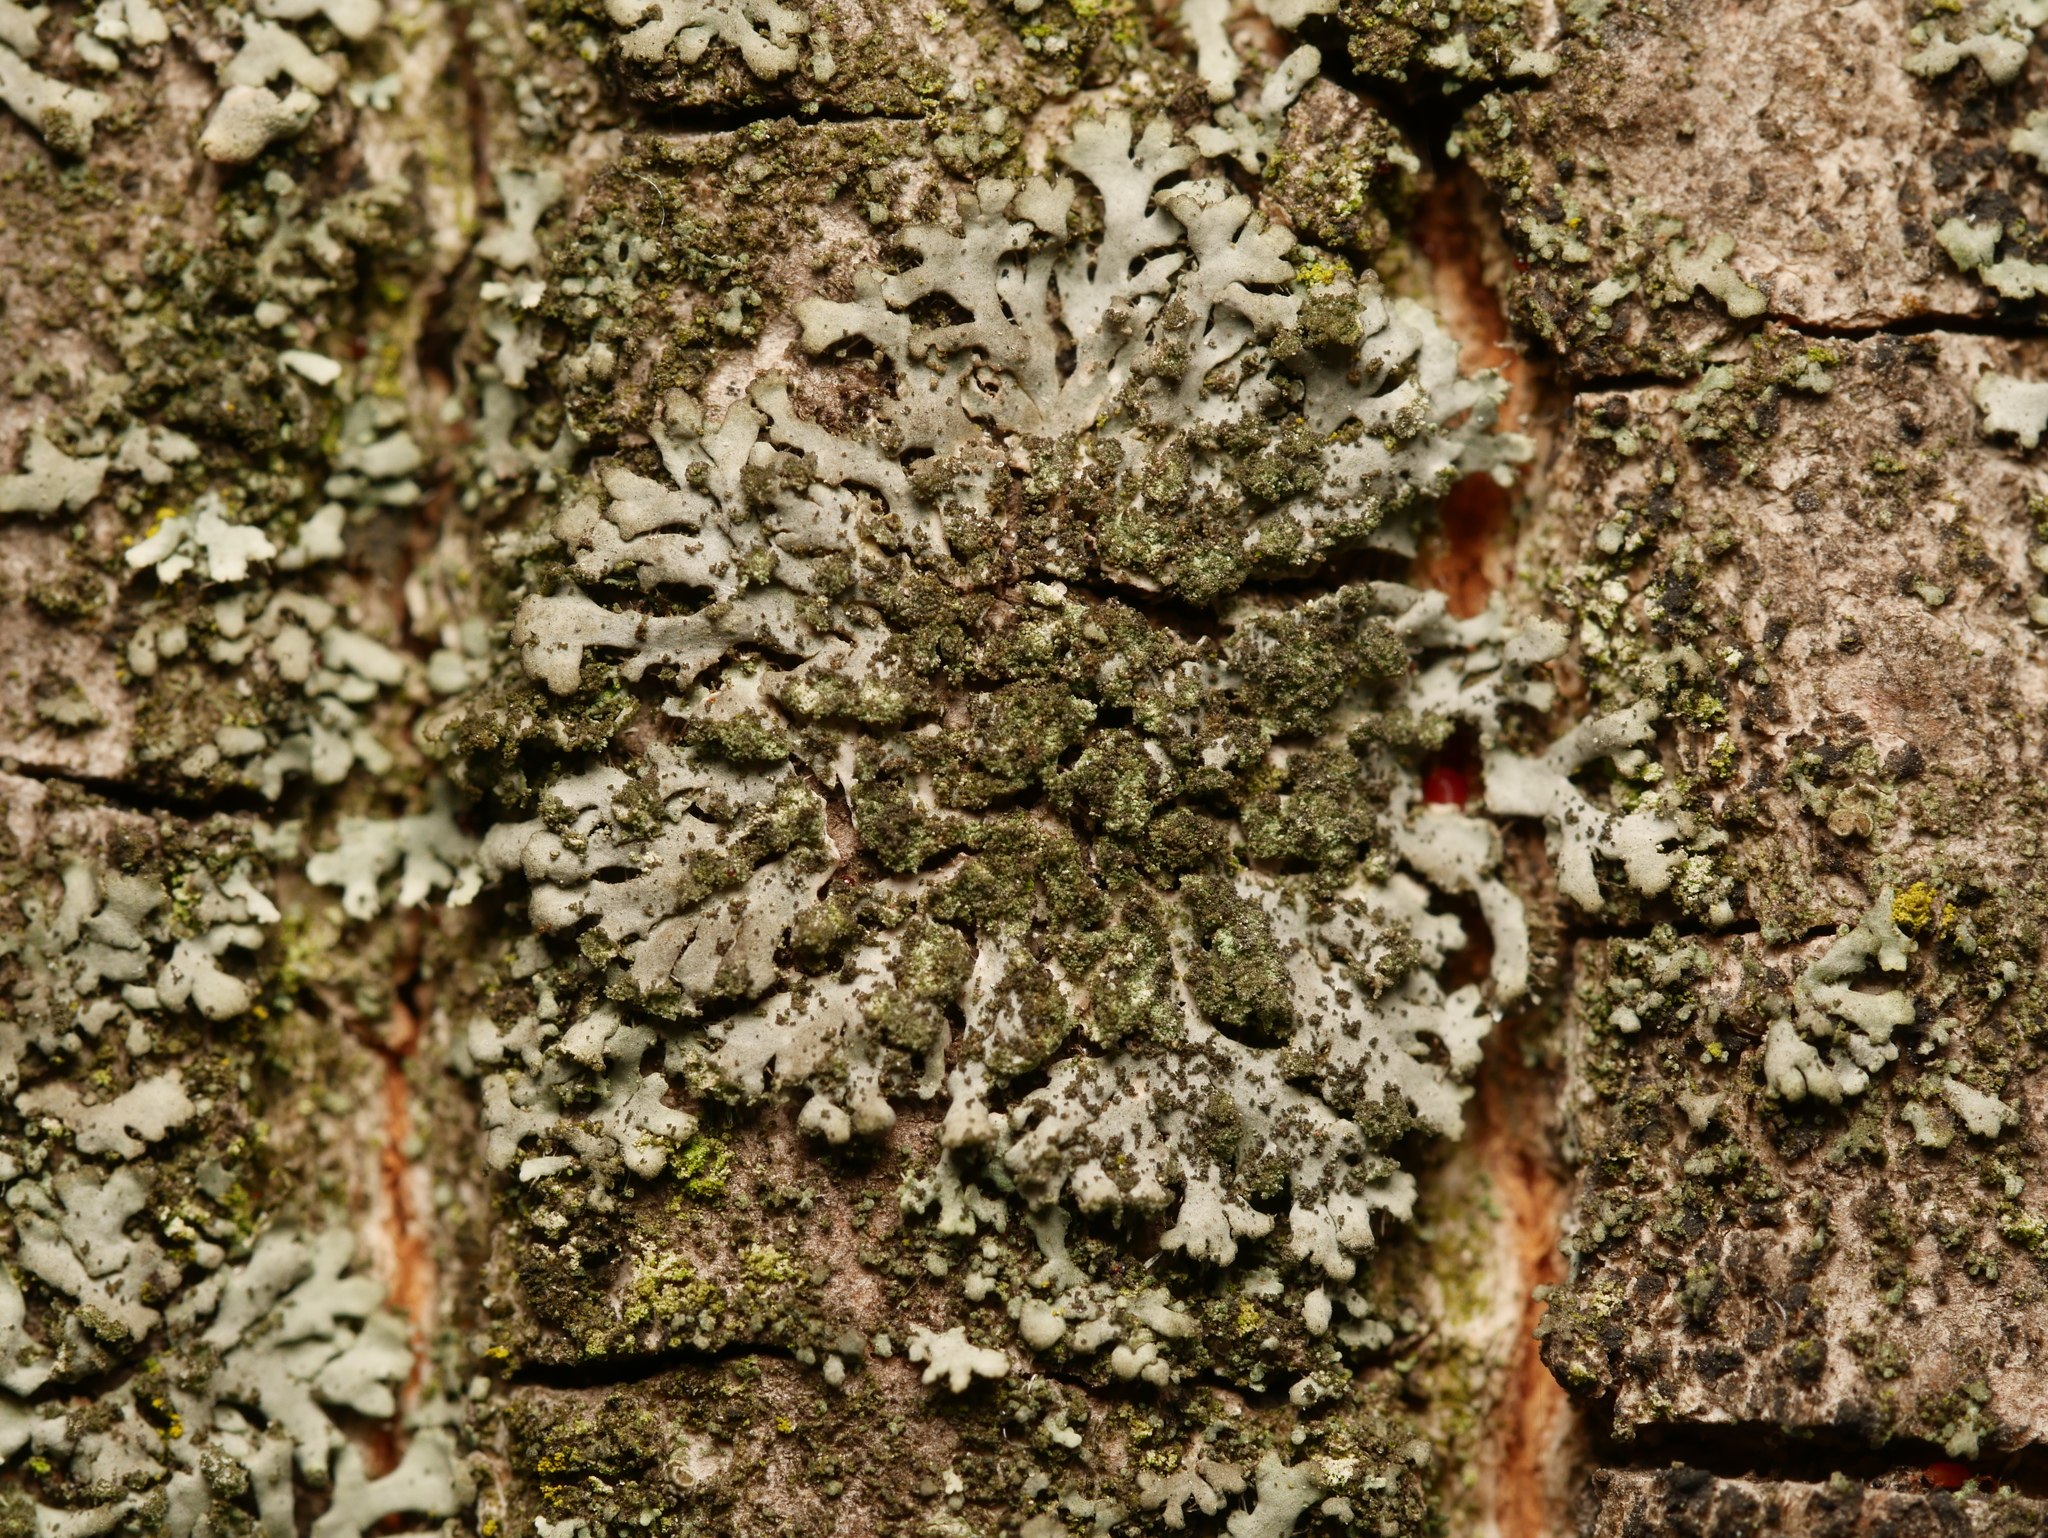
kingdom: Fungi
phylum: Ascomycota
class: Lecanoromycetes
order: Caliciales
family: Physciaceae
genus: Phaeophyscia
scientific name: Phaeophyscia orbicularis
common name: Mealy shadow lichen
